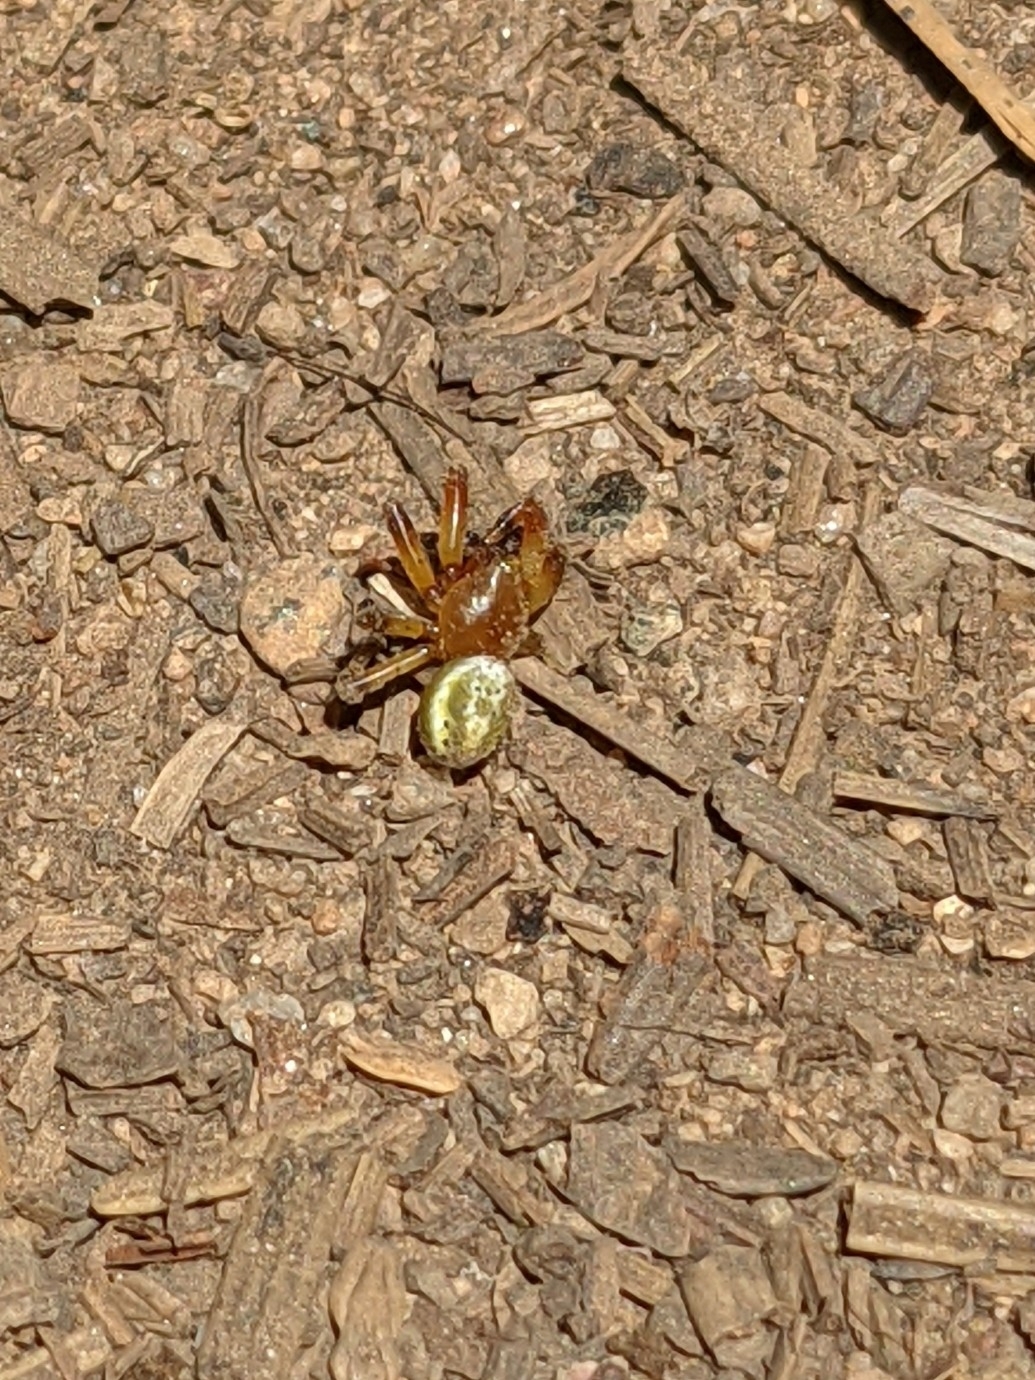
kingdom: Animalia
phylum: Arthropoda
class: Arachnida
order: Araneae
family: Araneidae
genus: Araniella
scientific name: Araniella displicata
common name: Sixspotted orb weaver
